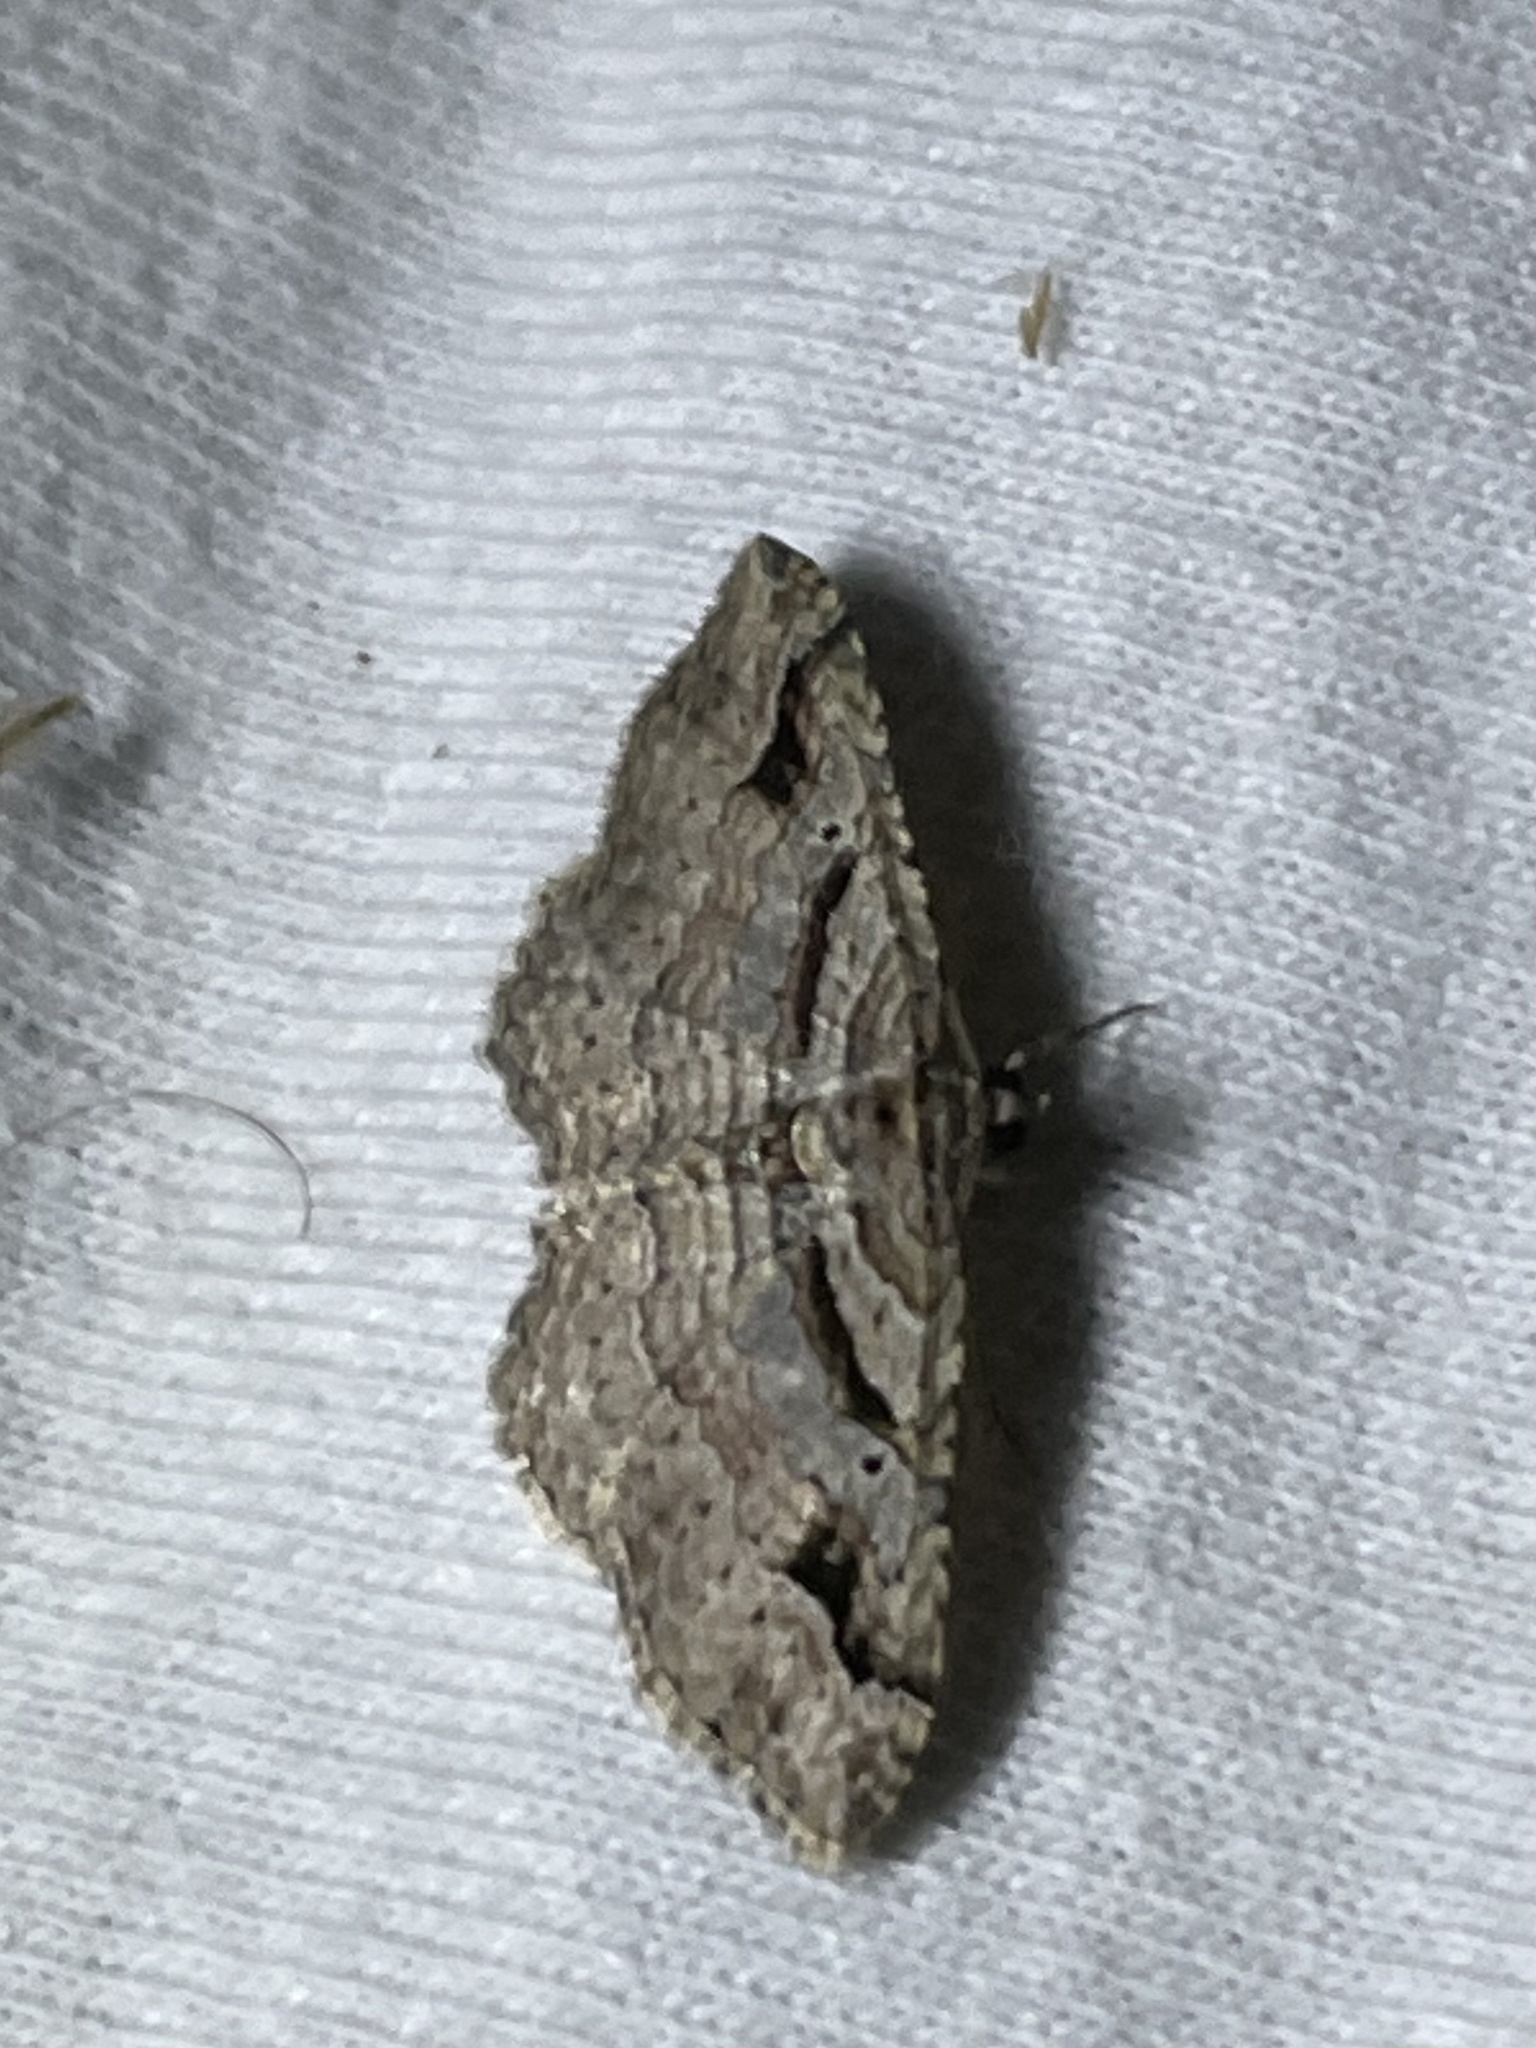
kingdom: Animalia
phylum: Arthropoda
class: Insecta
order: Lepidoptera
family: Geometridae
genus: Costaconvexa
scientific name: Costaconvexa centrostrigaria
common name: Bent-line carpet
